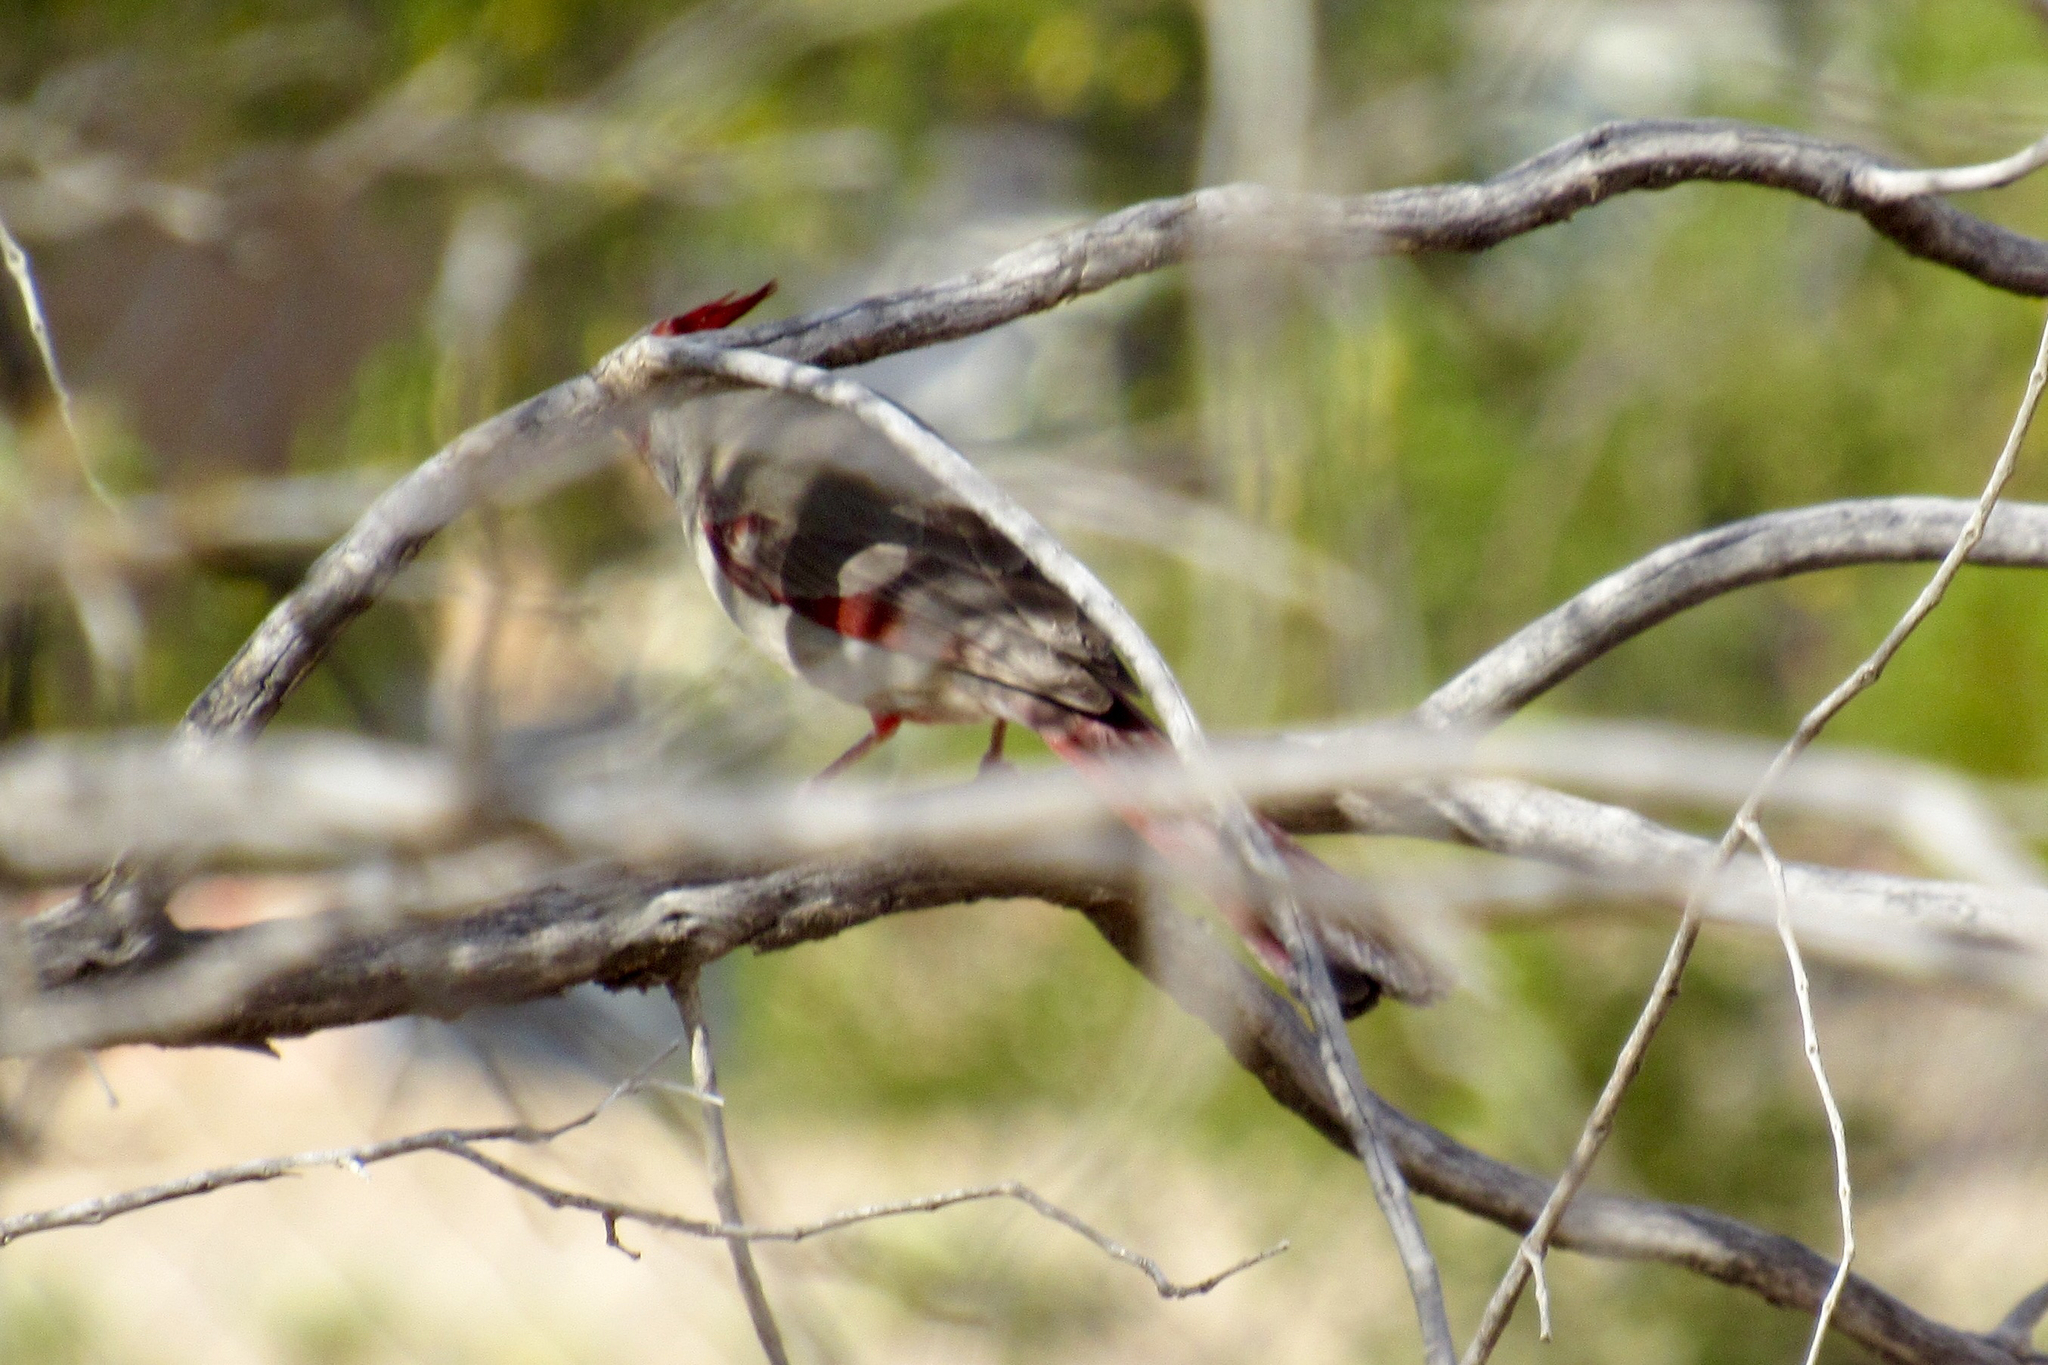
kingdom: Animalia
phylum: Chordata
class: Aves
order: Passeriformes
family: Cardinalidae
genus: Cardinalis
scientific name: Cardinalis sinuatus
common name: Pyrrhuloxia
